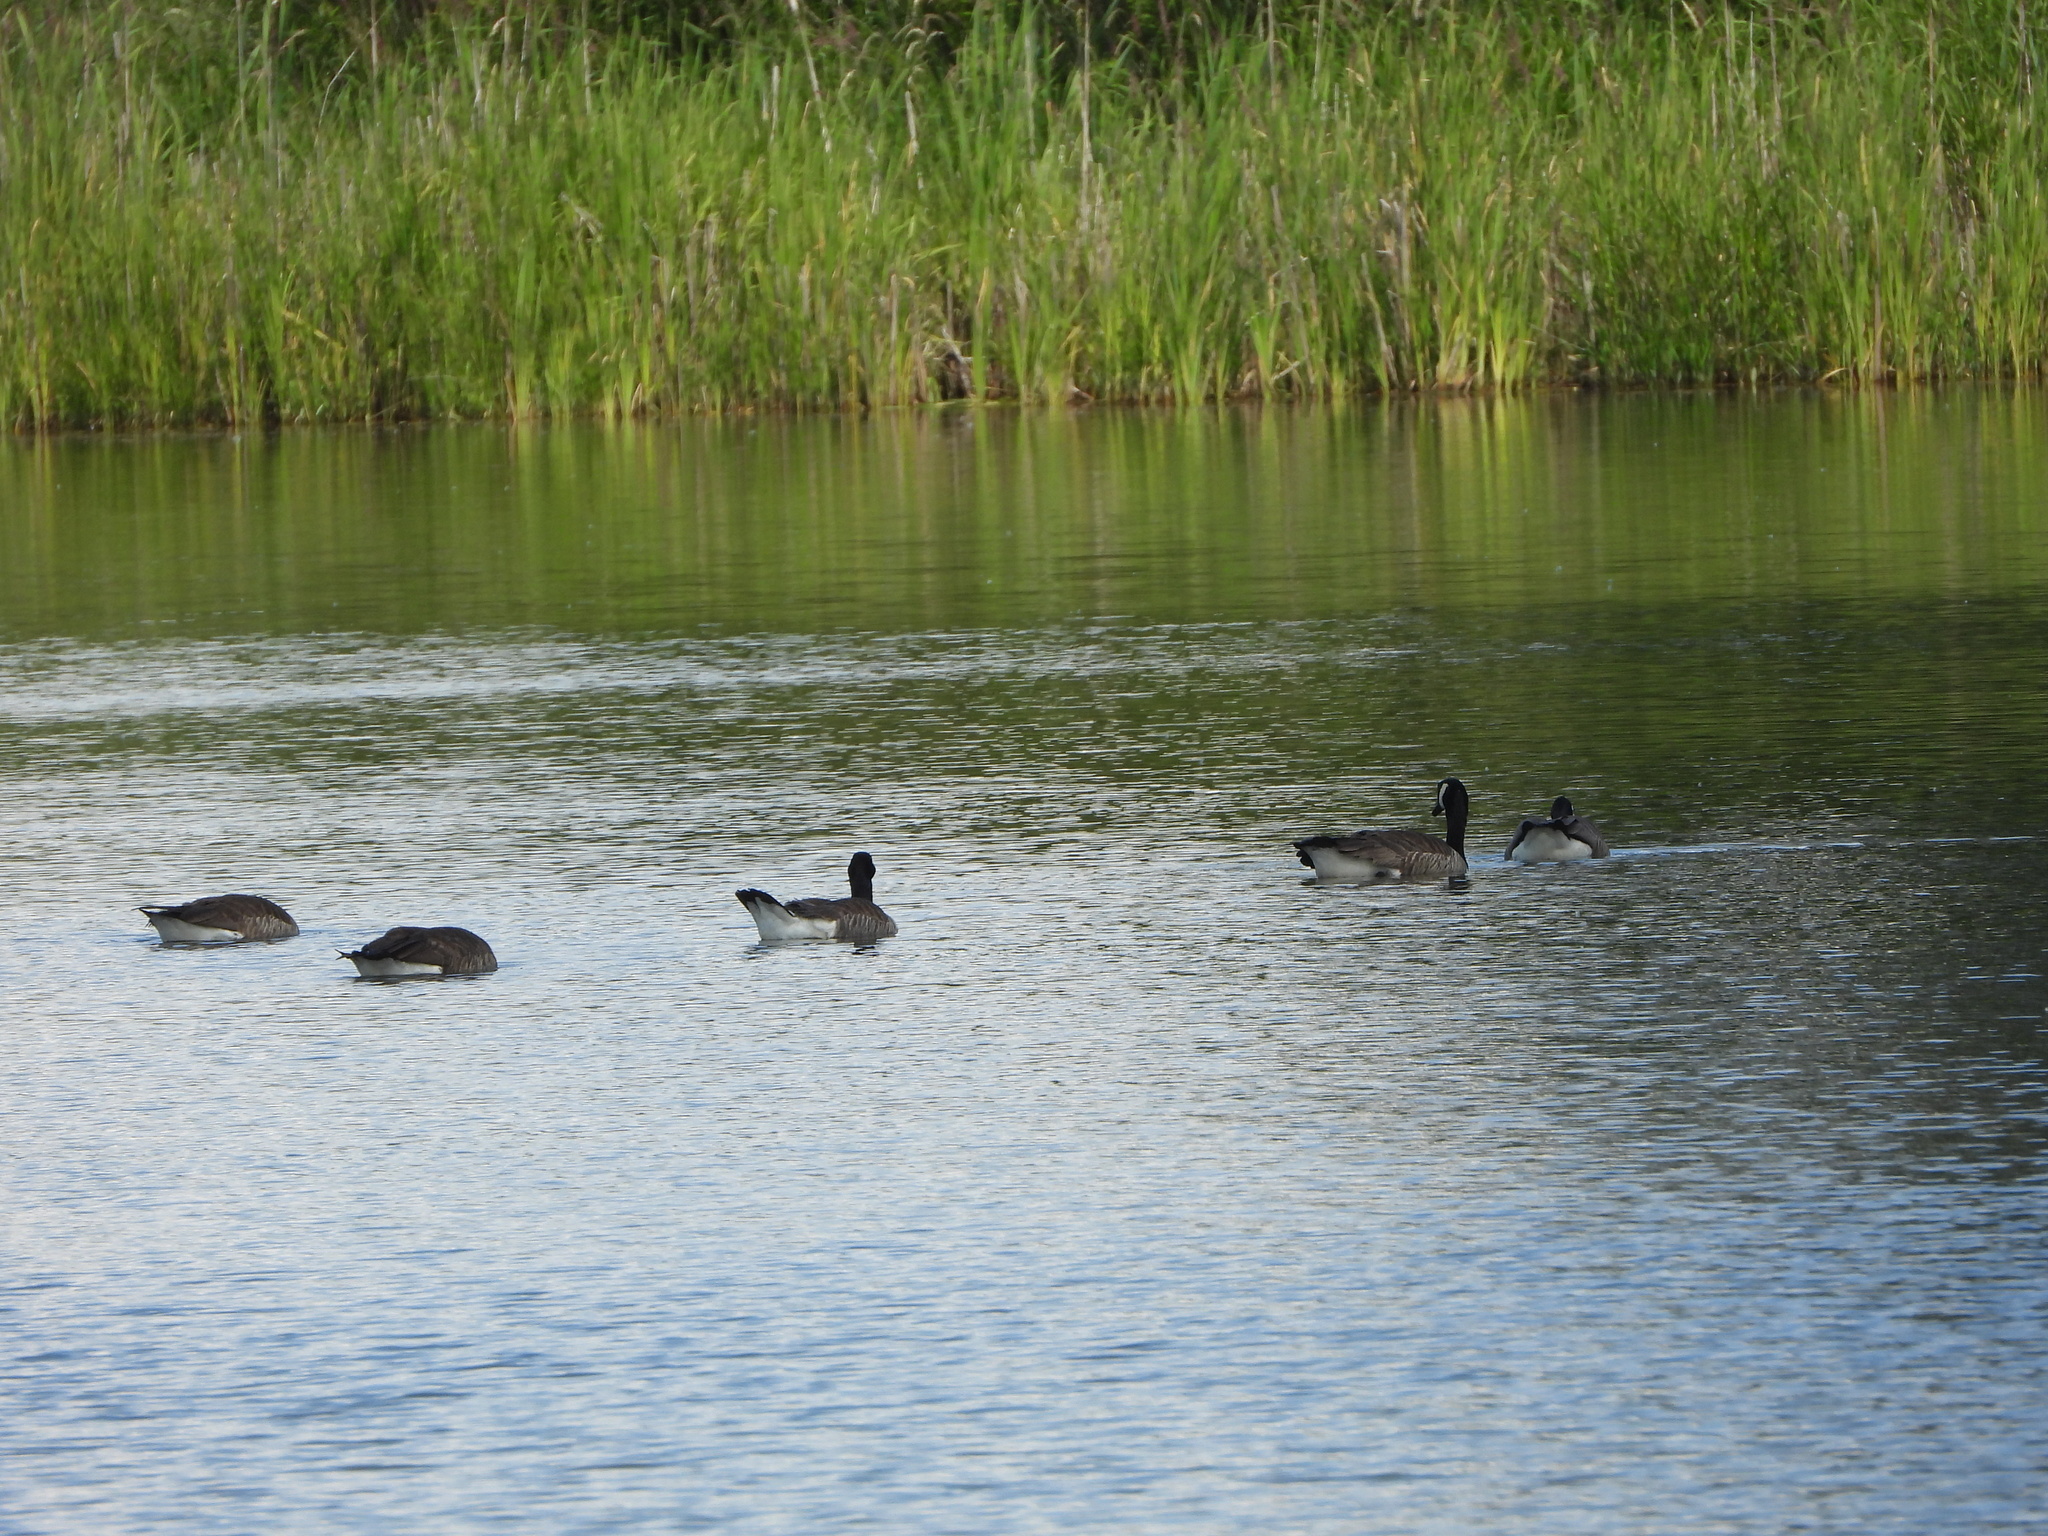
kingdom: Animalia
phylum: Chordata
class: Aves
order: Anseriformes
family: Anatidae
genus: Branta
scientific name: Branta canadensis
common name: Canada goose
